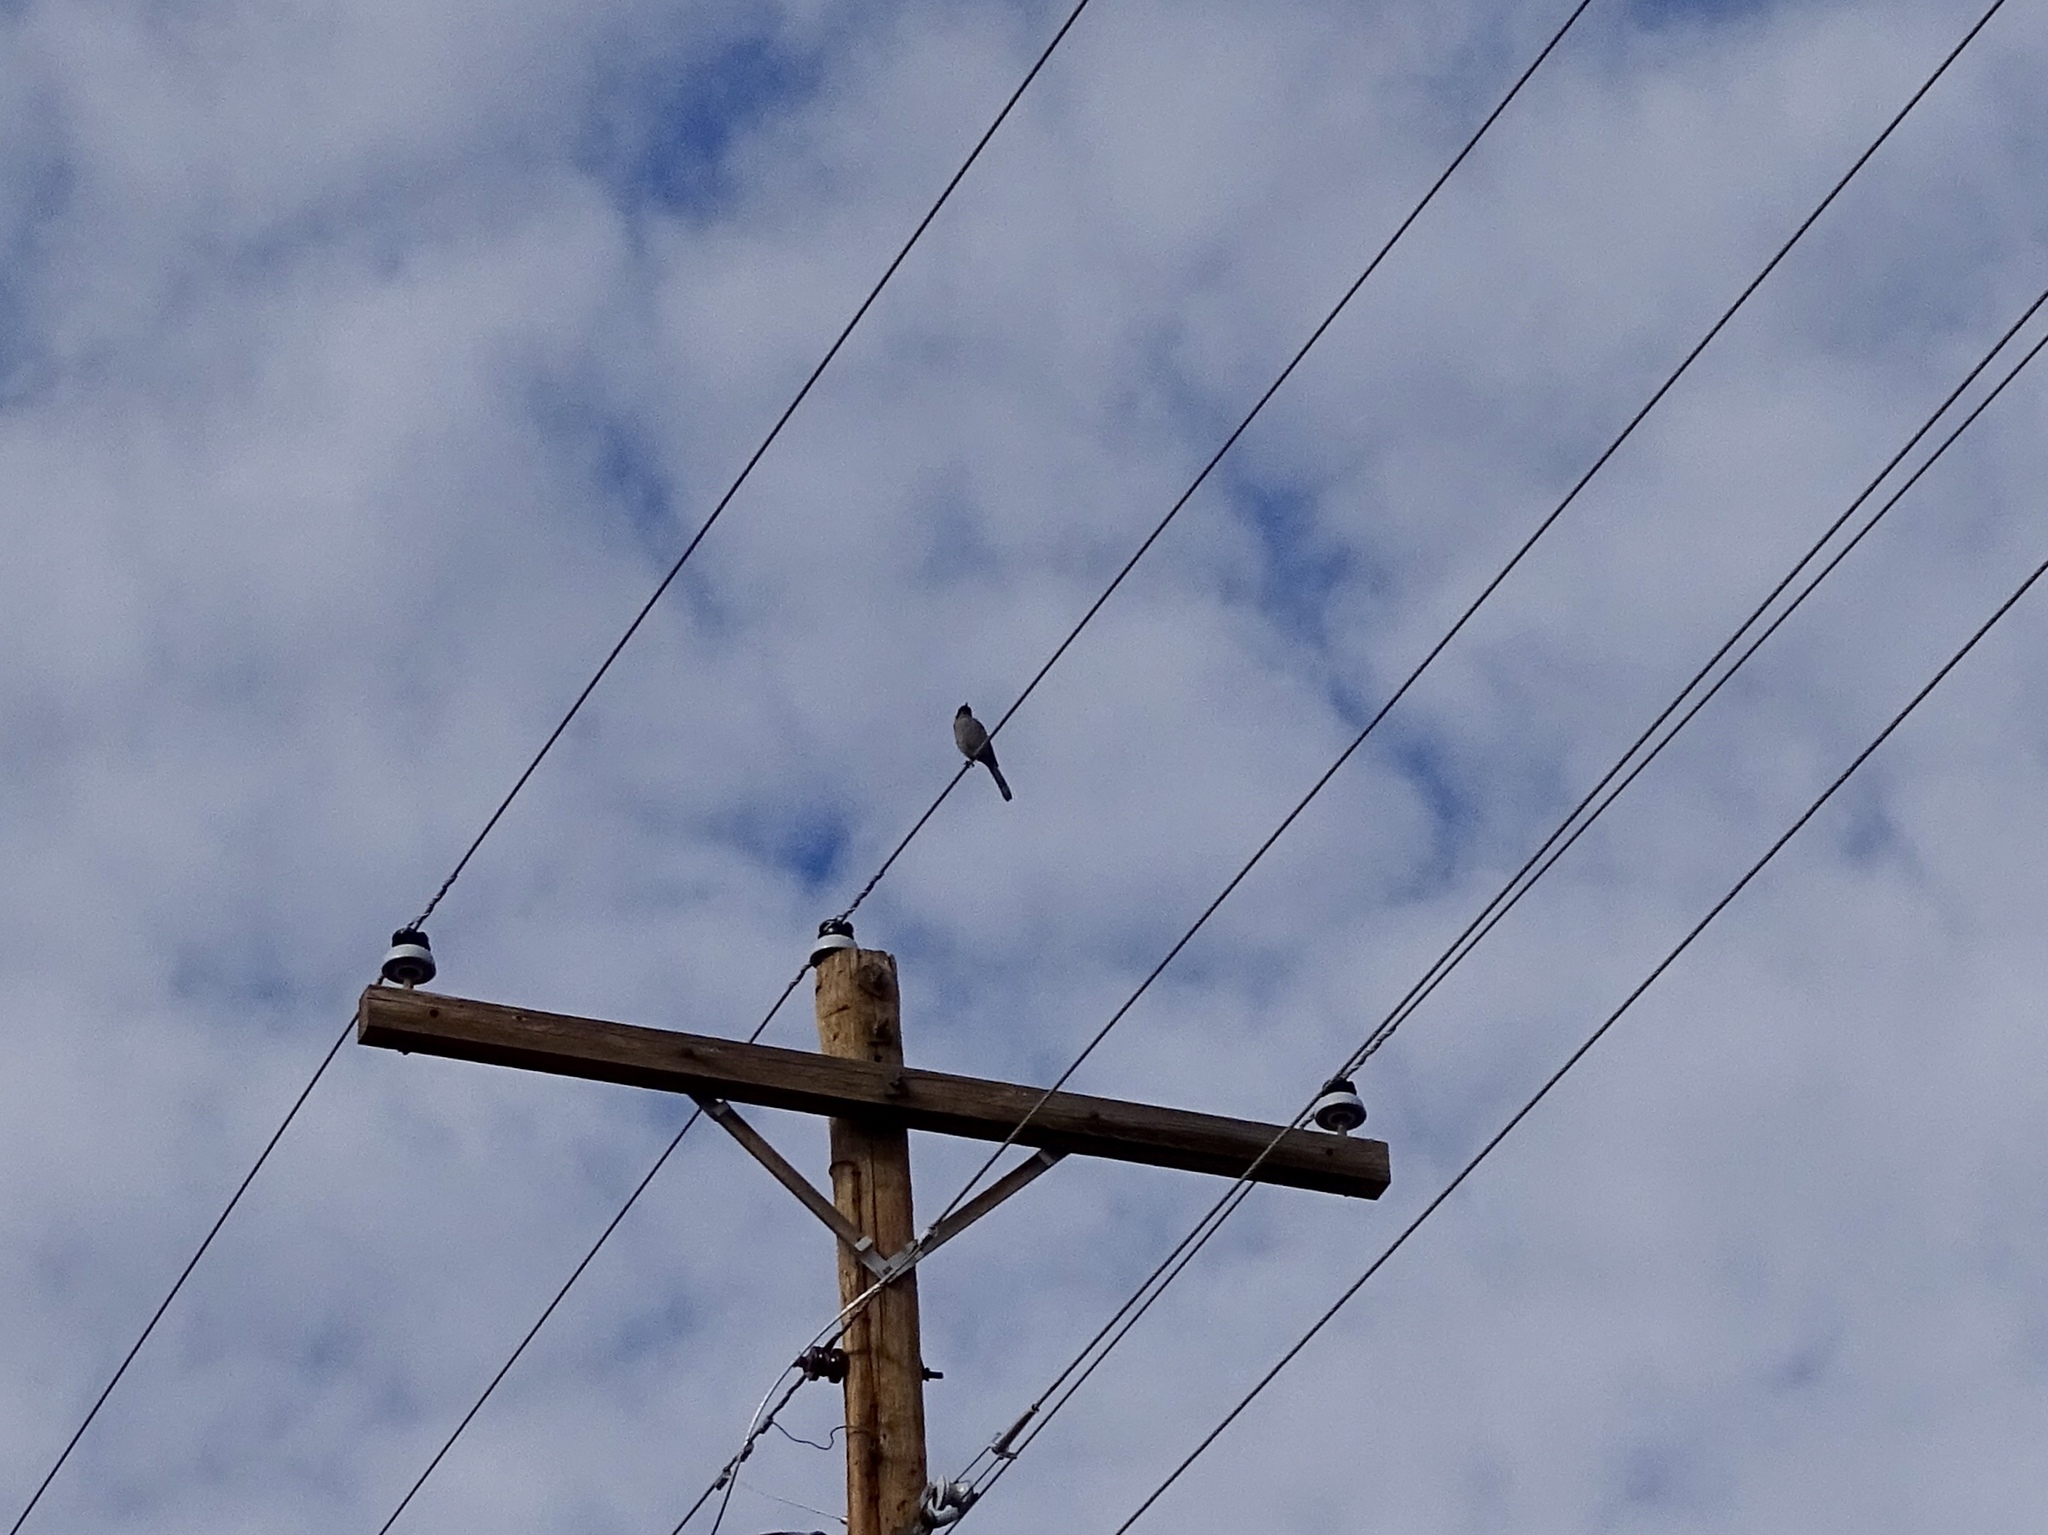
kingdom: Animalia
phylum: Chordata
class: Aves
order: Passeriformes
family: Corvidae
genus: Aphelocoma
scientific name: Aphelocoma woodhouseii
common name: Woodhouse's scrub-jay
